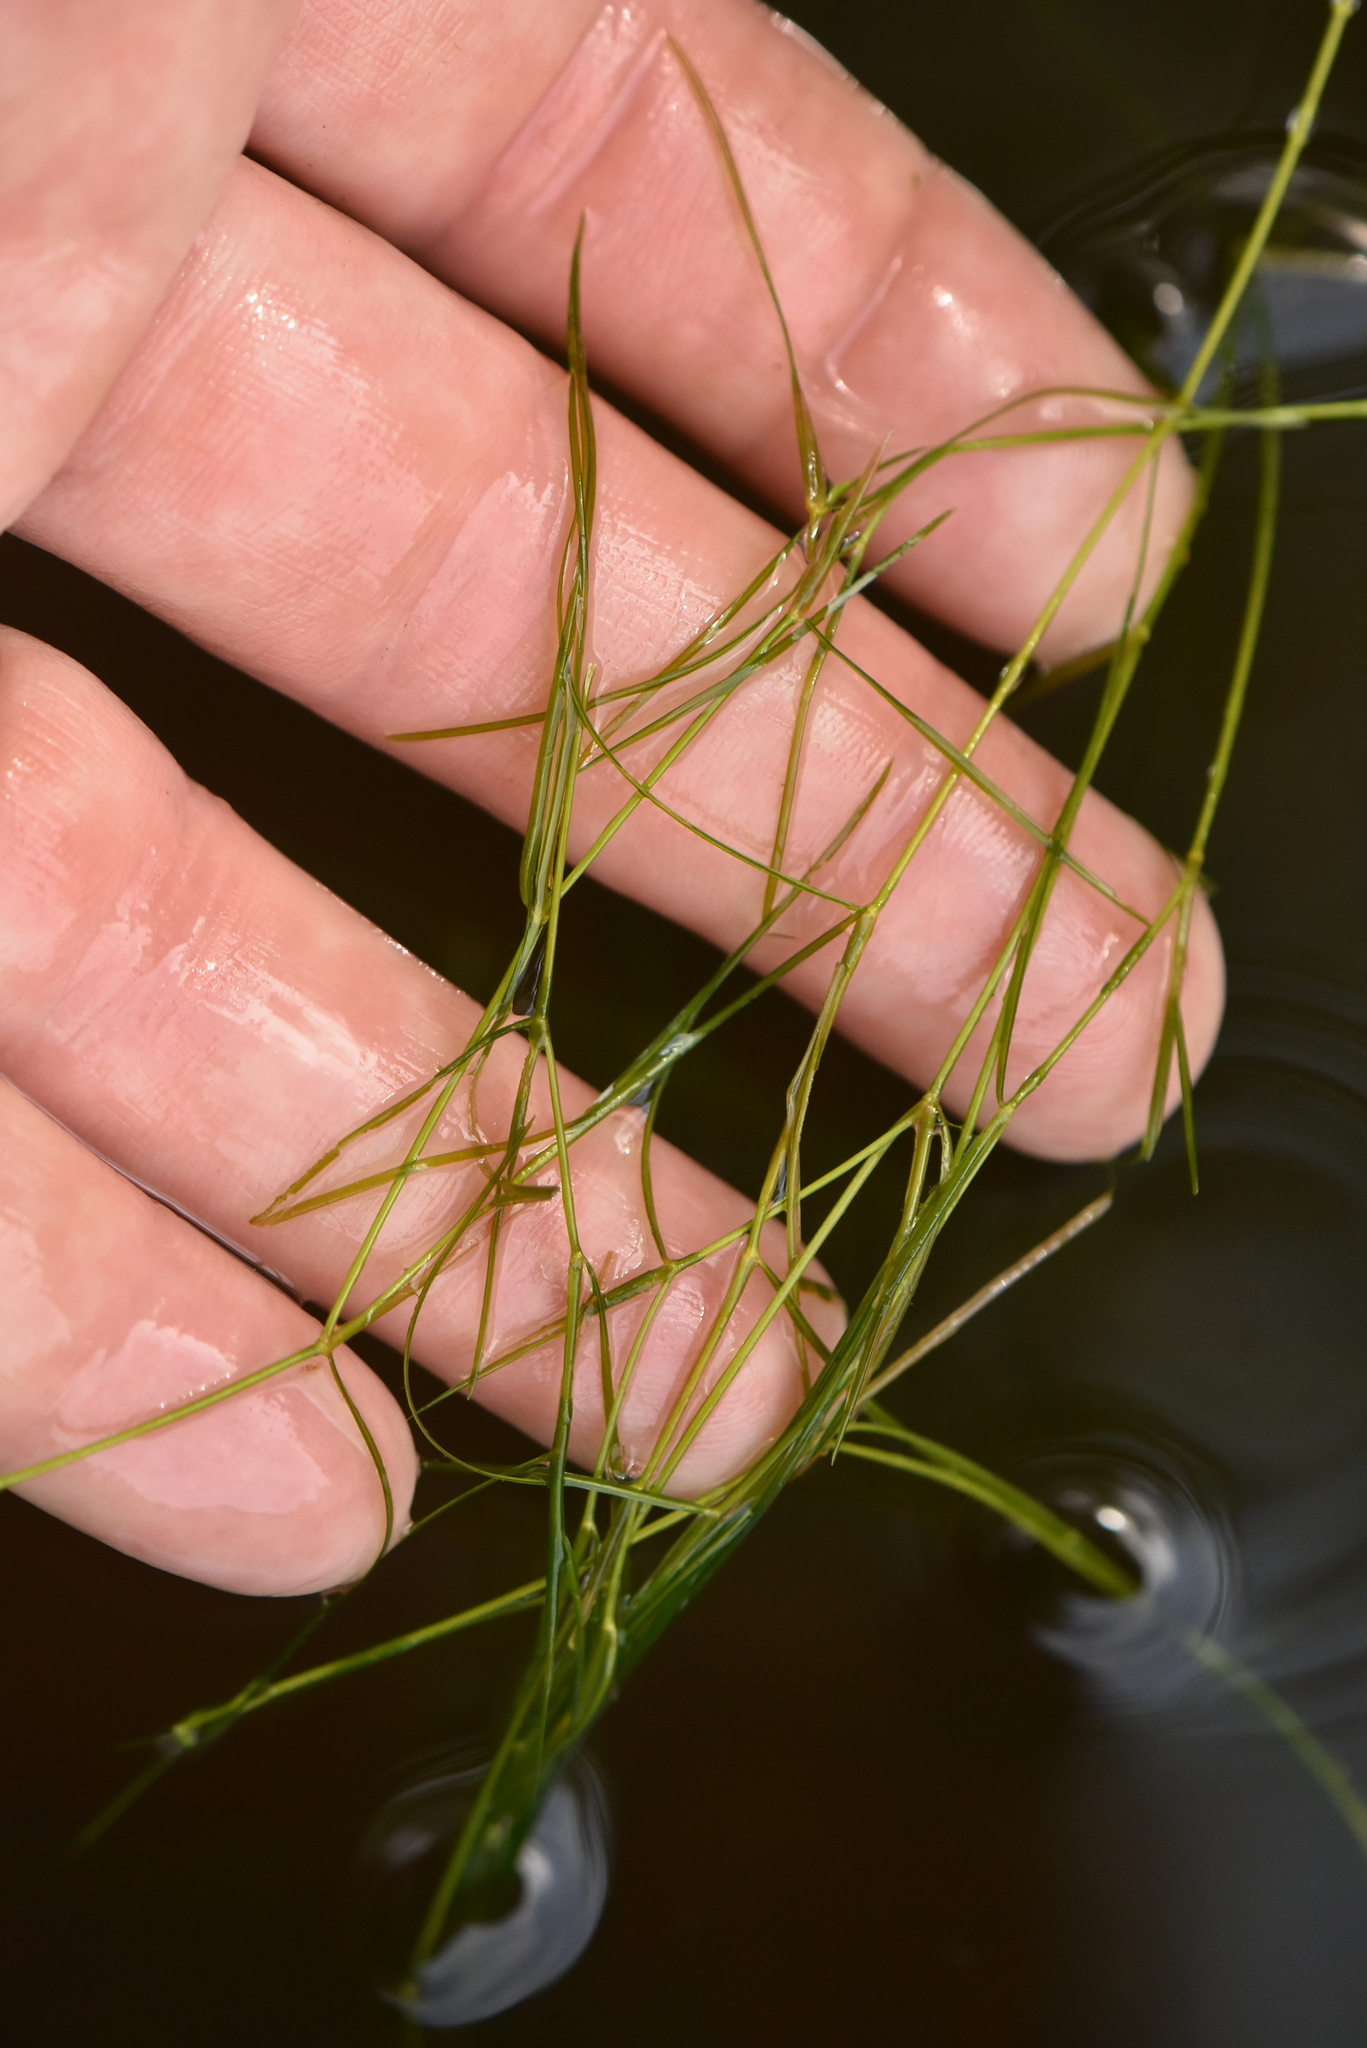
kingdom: Plantae
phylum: Tracheophyta
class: Liliopsida
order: Alismatales
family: Potamogetonaceae
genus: Potamogeton
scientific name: Potamogeton trichoides
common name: Hairlike pondweed
